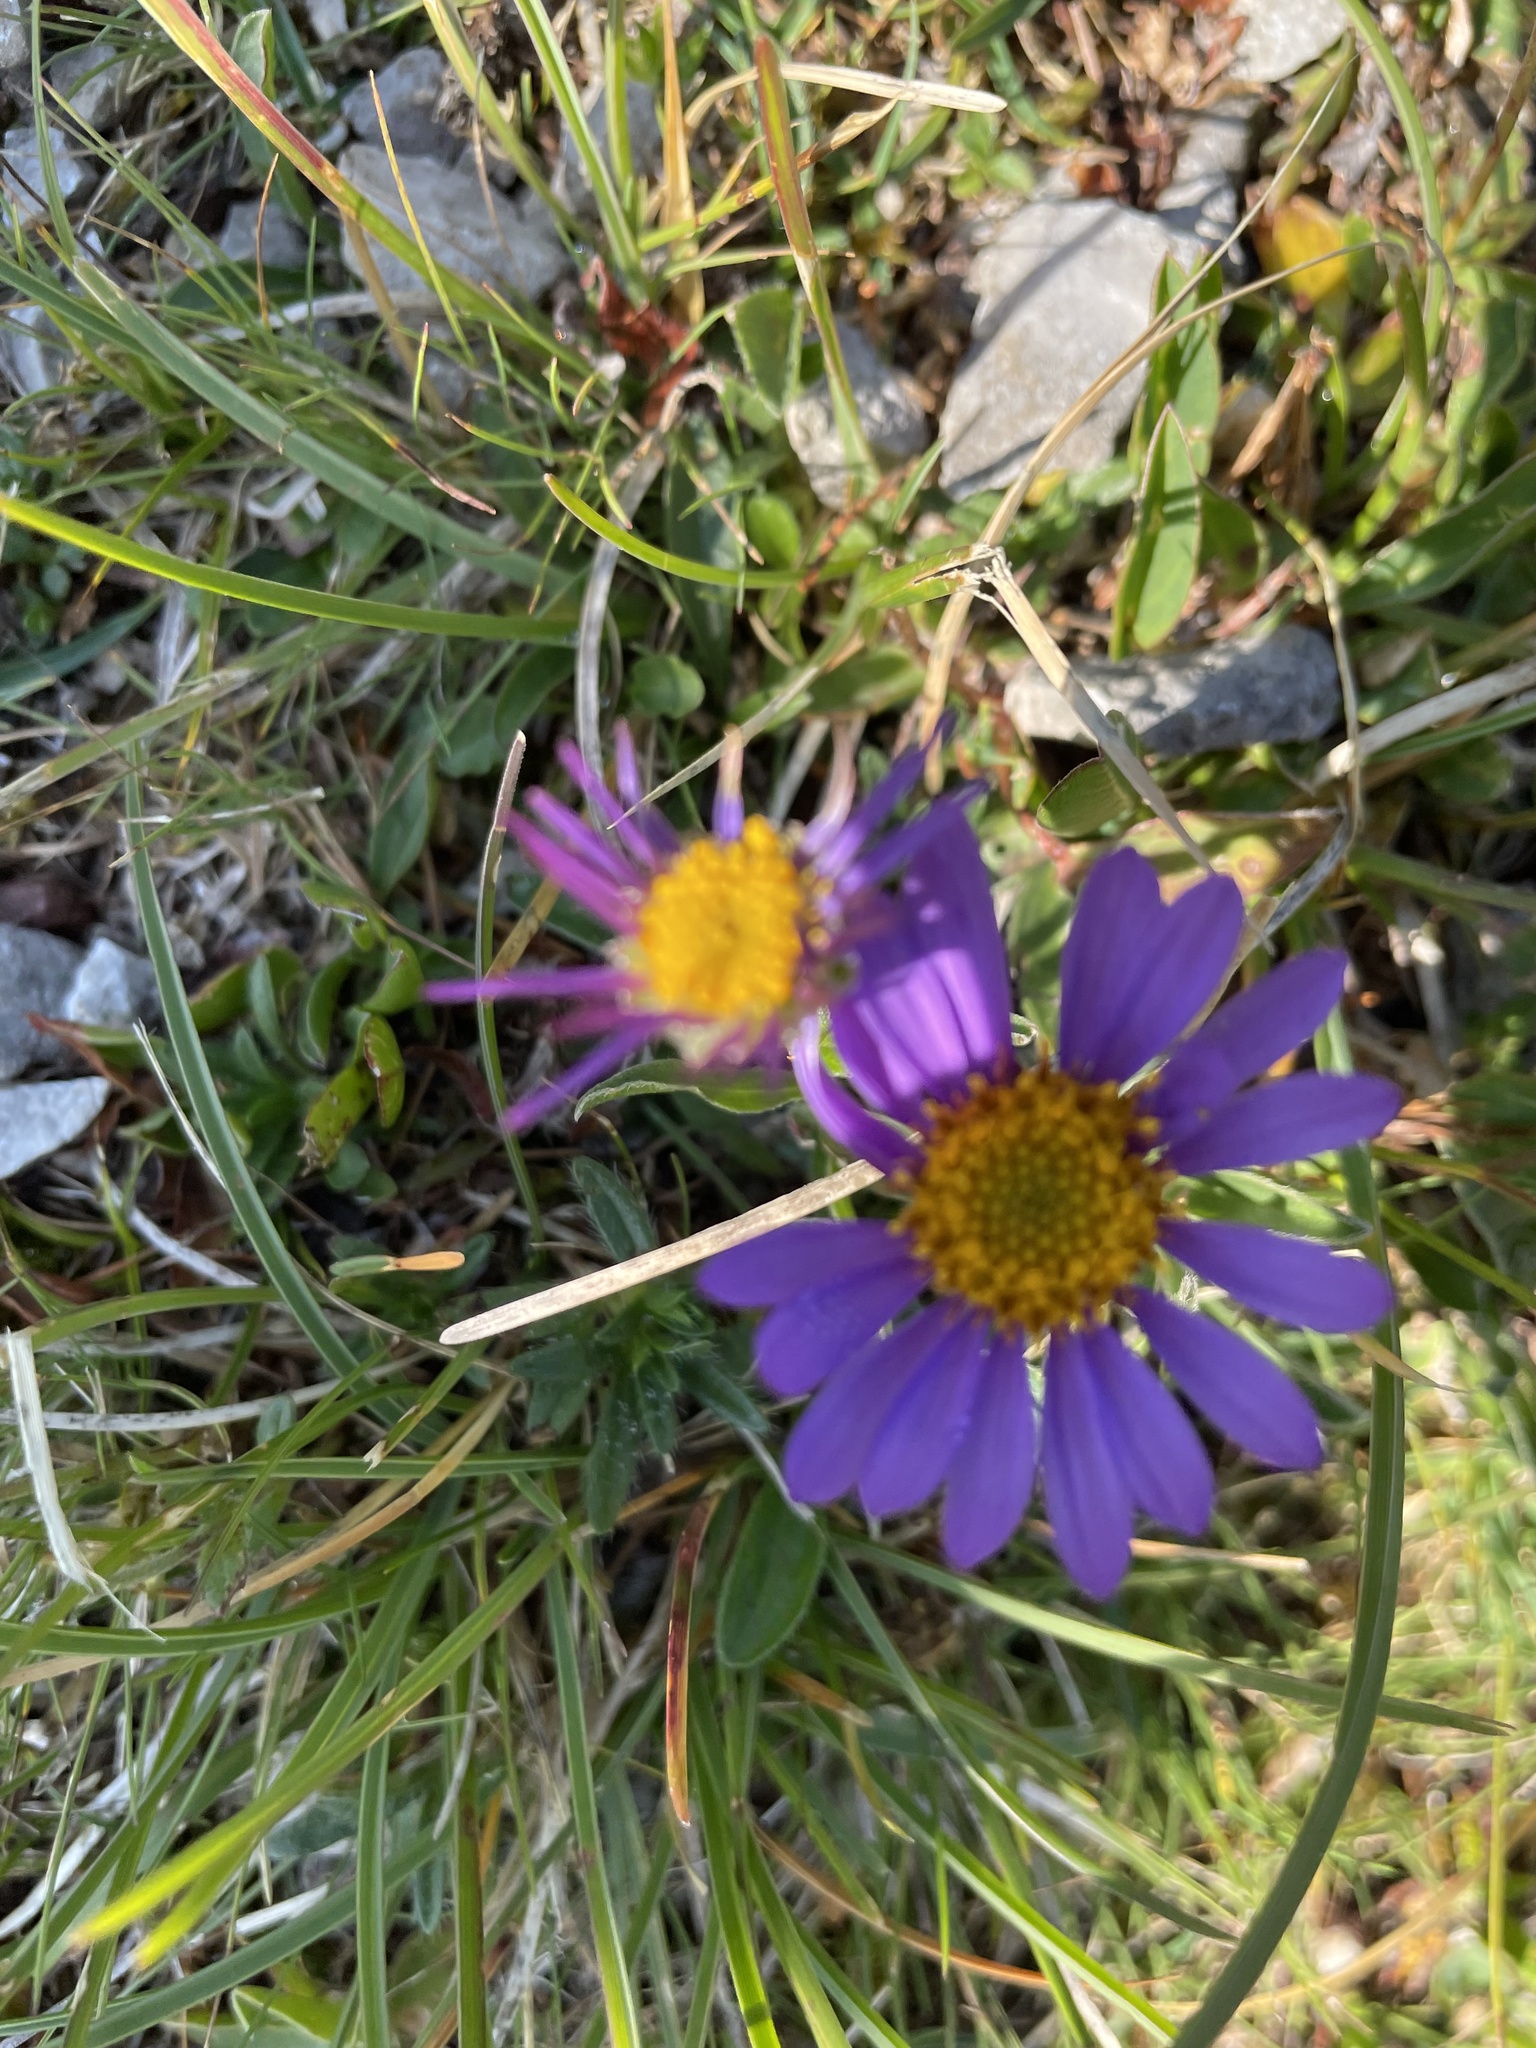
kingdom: Plantae
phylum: Tracheophyta
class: Magnoliopsida
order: Asterales
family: Asteraceae
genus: Aster
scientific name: Aster alpinus
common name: Alpine aster
